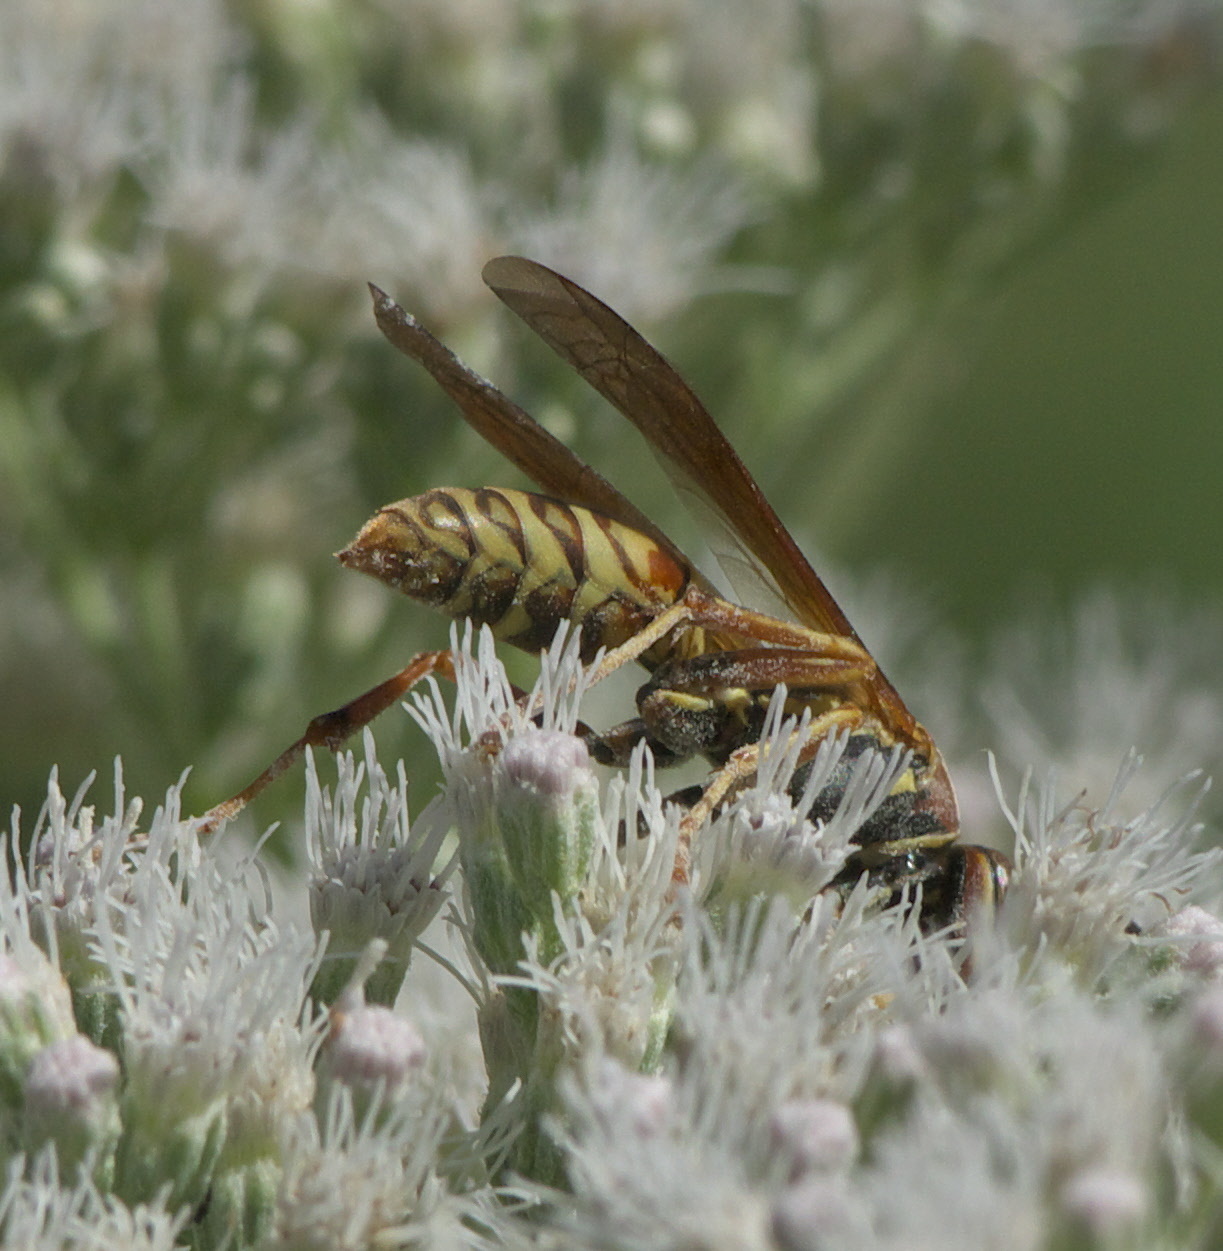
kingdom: Animalia
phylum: Arthropoda
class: Insecta
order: Hymenoptera
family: Eumenidae
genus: Polistes
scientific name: Polistes fuscatus
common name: Dark paper wasp
